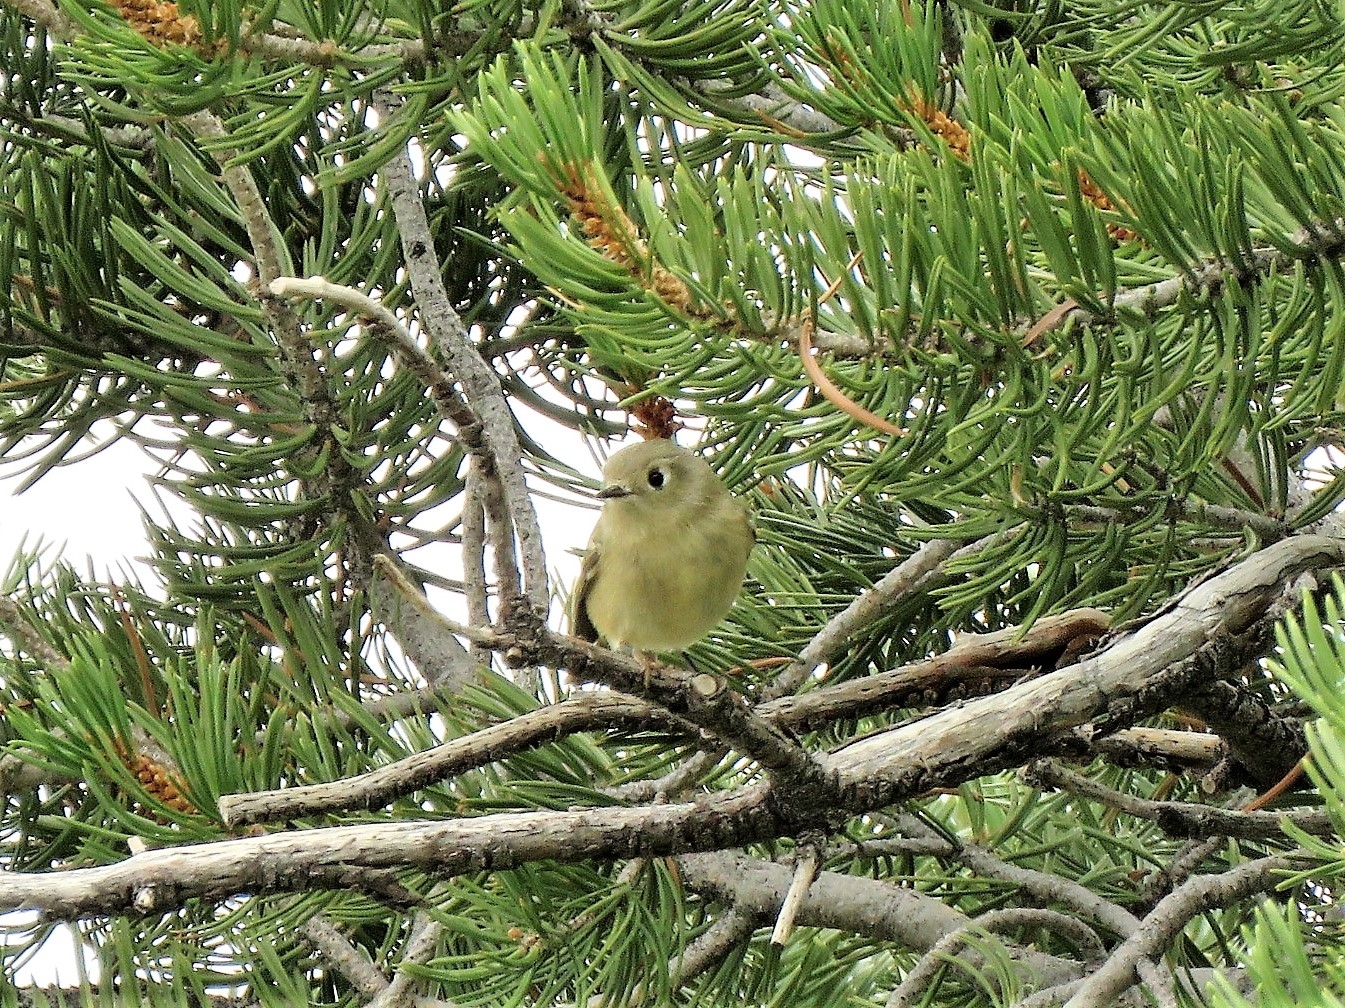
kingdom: Animalia
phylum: Chordata
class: Aves
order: Passeriformes
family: Regulidae
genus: Regulus
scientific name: Regulus calendula
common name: Ruby-crowned kinglet
